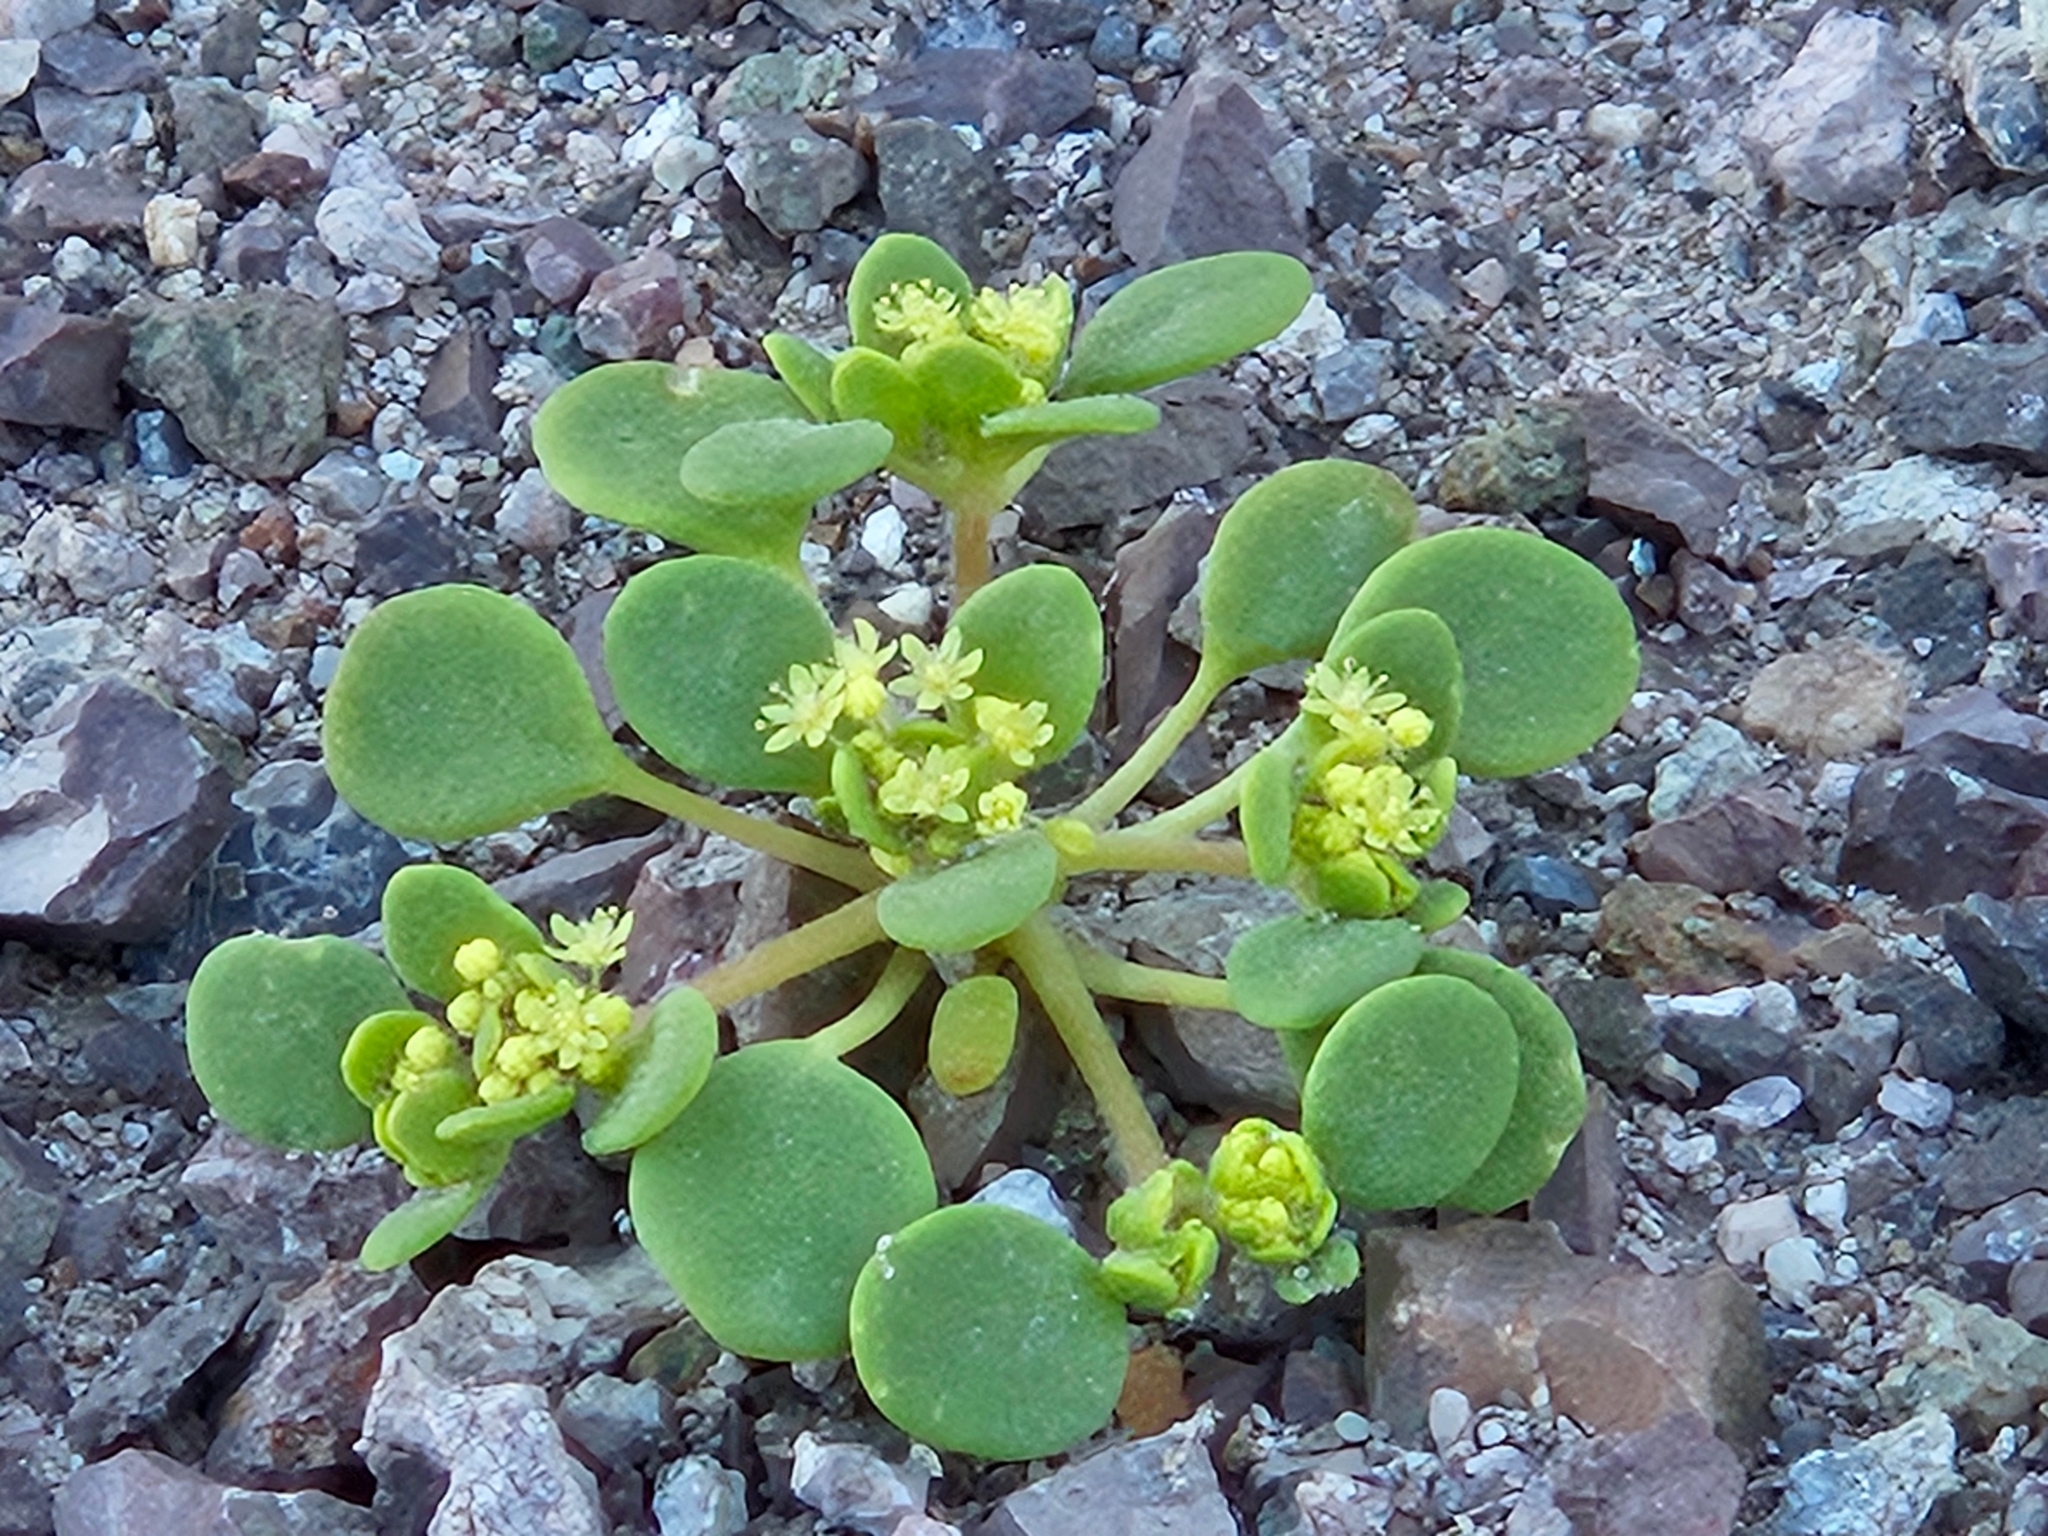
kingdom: Plantae
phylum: Tracheophyta
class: Magnoliopsida
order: Caryophyllales
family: Polygonaceae
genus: Gilmania
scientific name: Gilmania luteola
